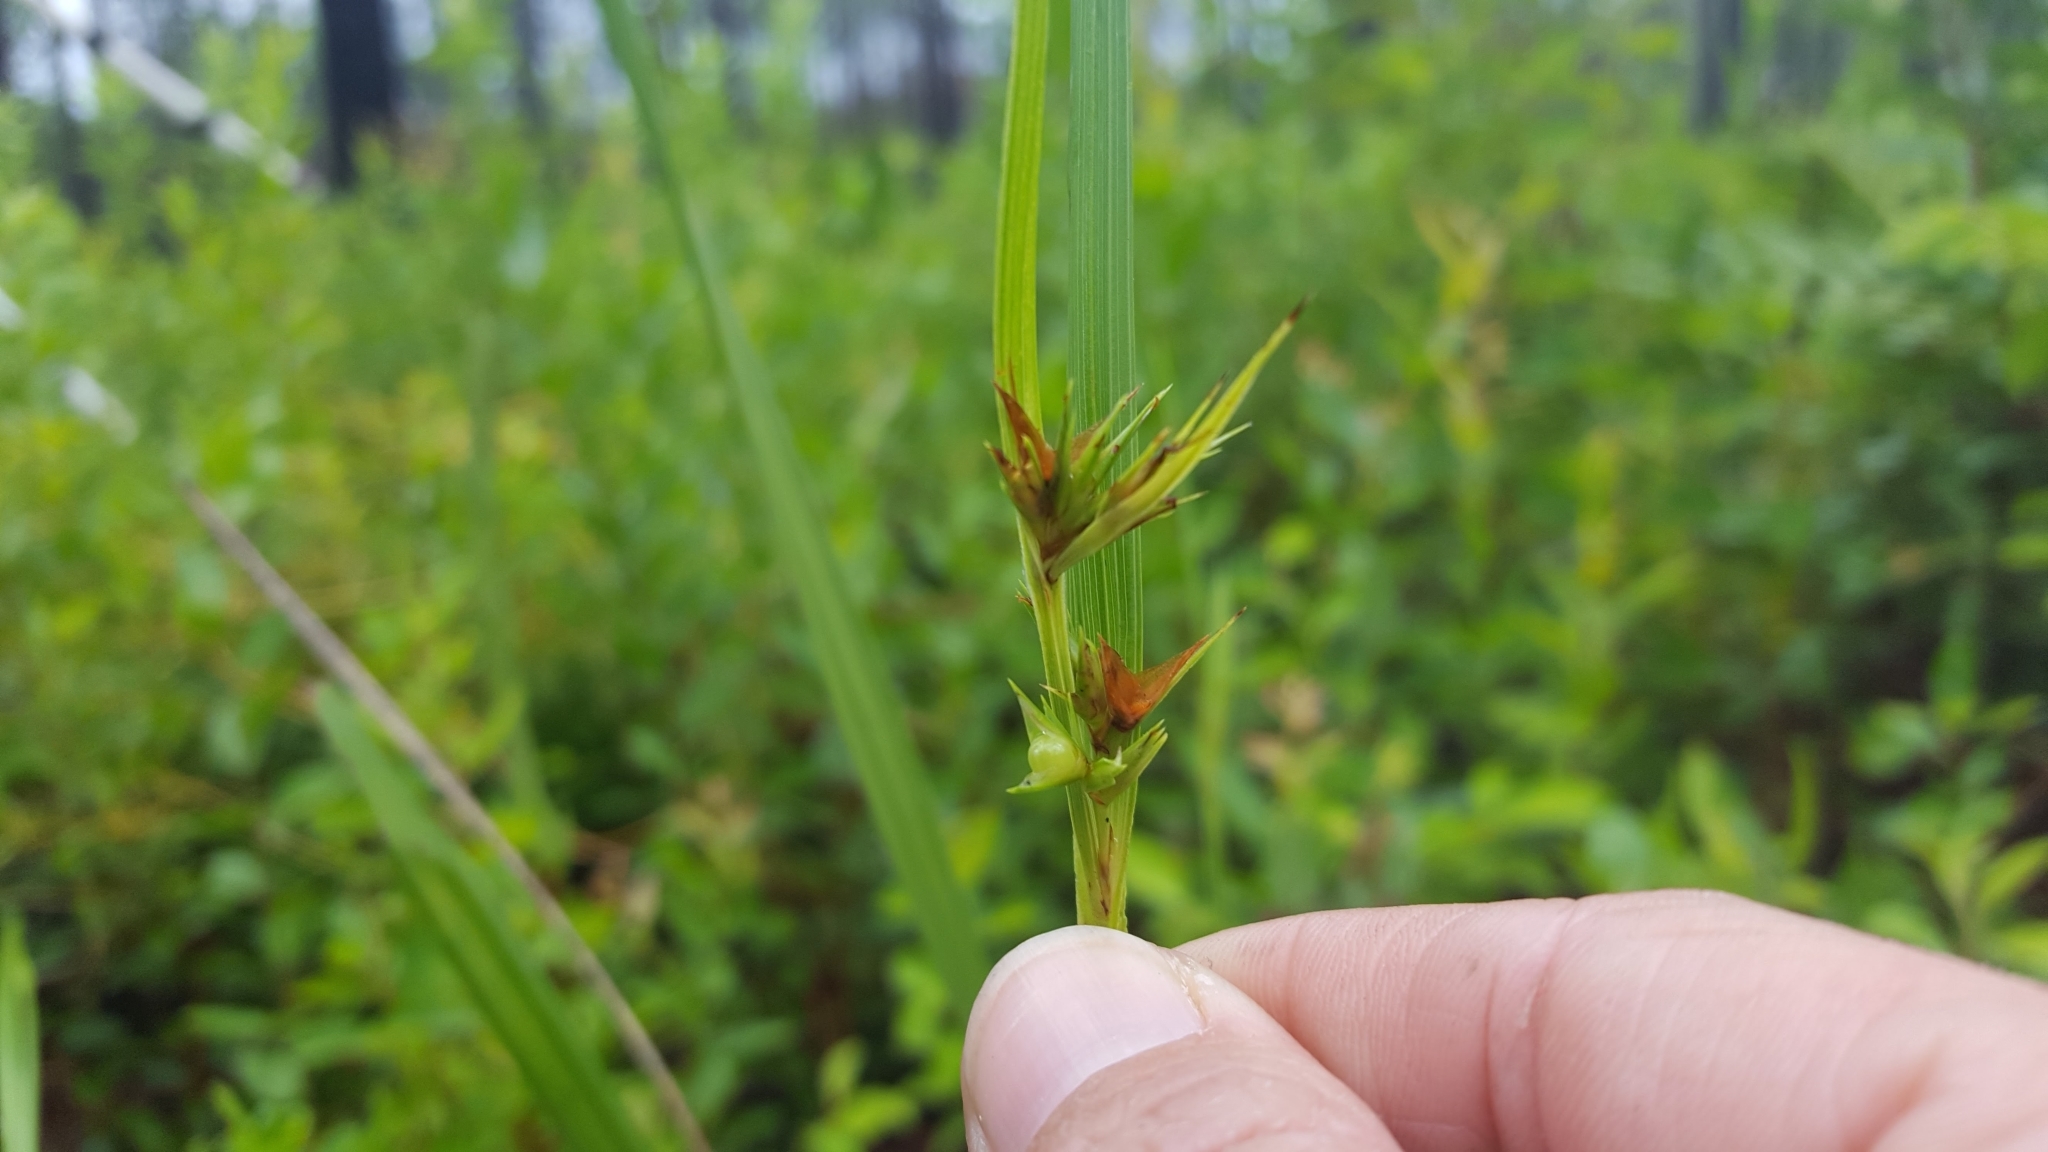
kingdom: Plantae
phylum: Tracheophyta
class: Liliopsida
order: Poales
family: Cyperaceae
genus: Scleria
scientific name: Scleria triglomerata
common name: Whip nutrush
